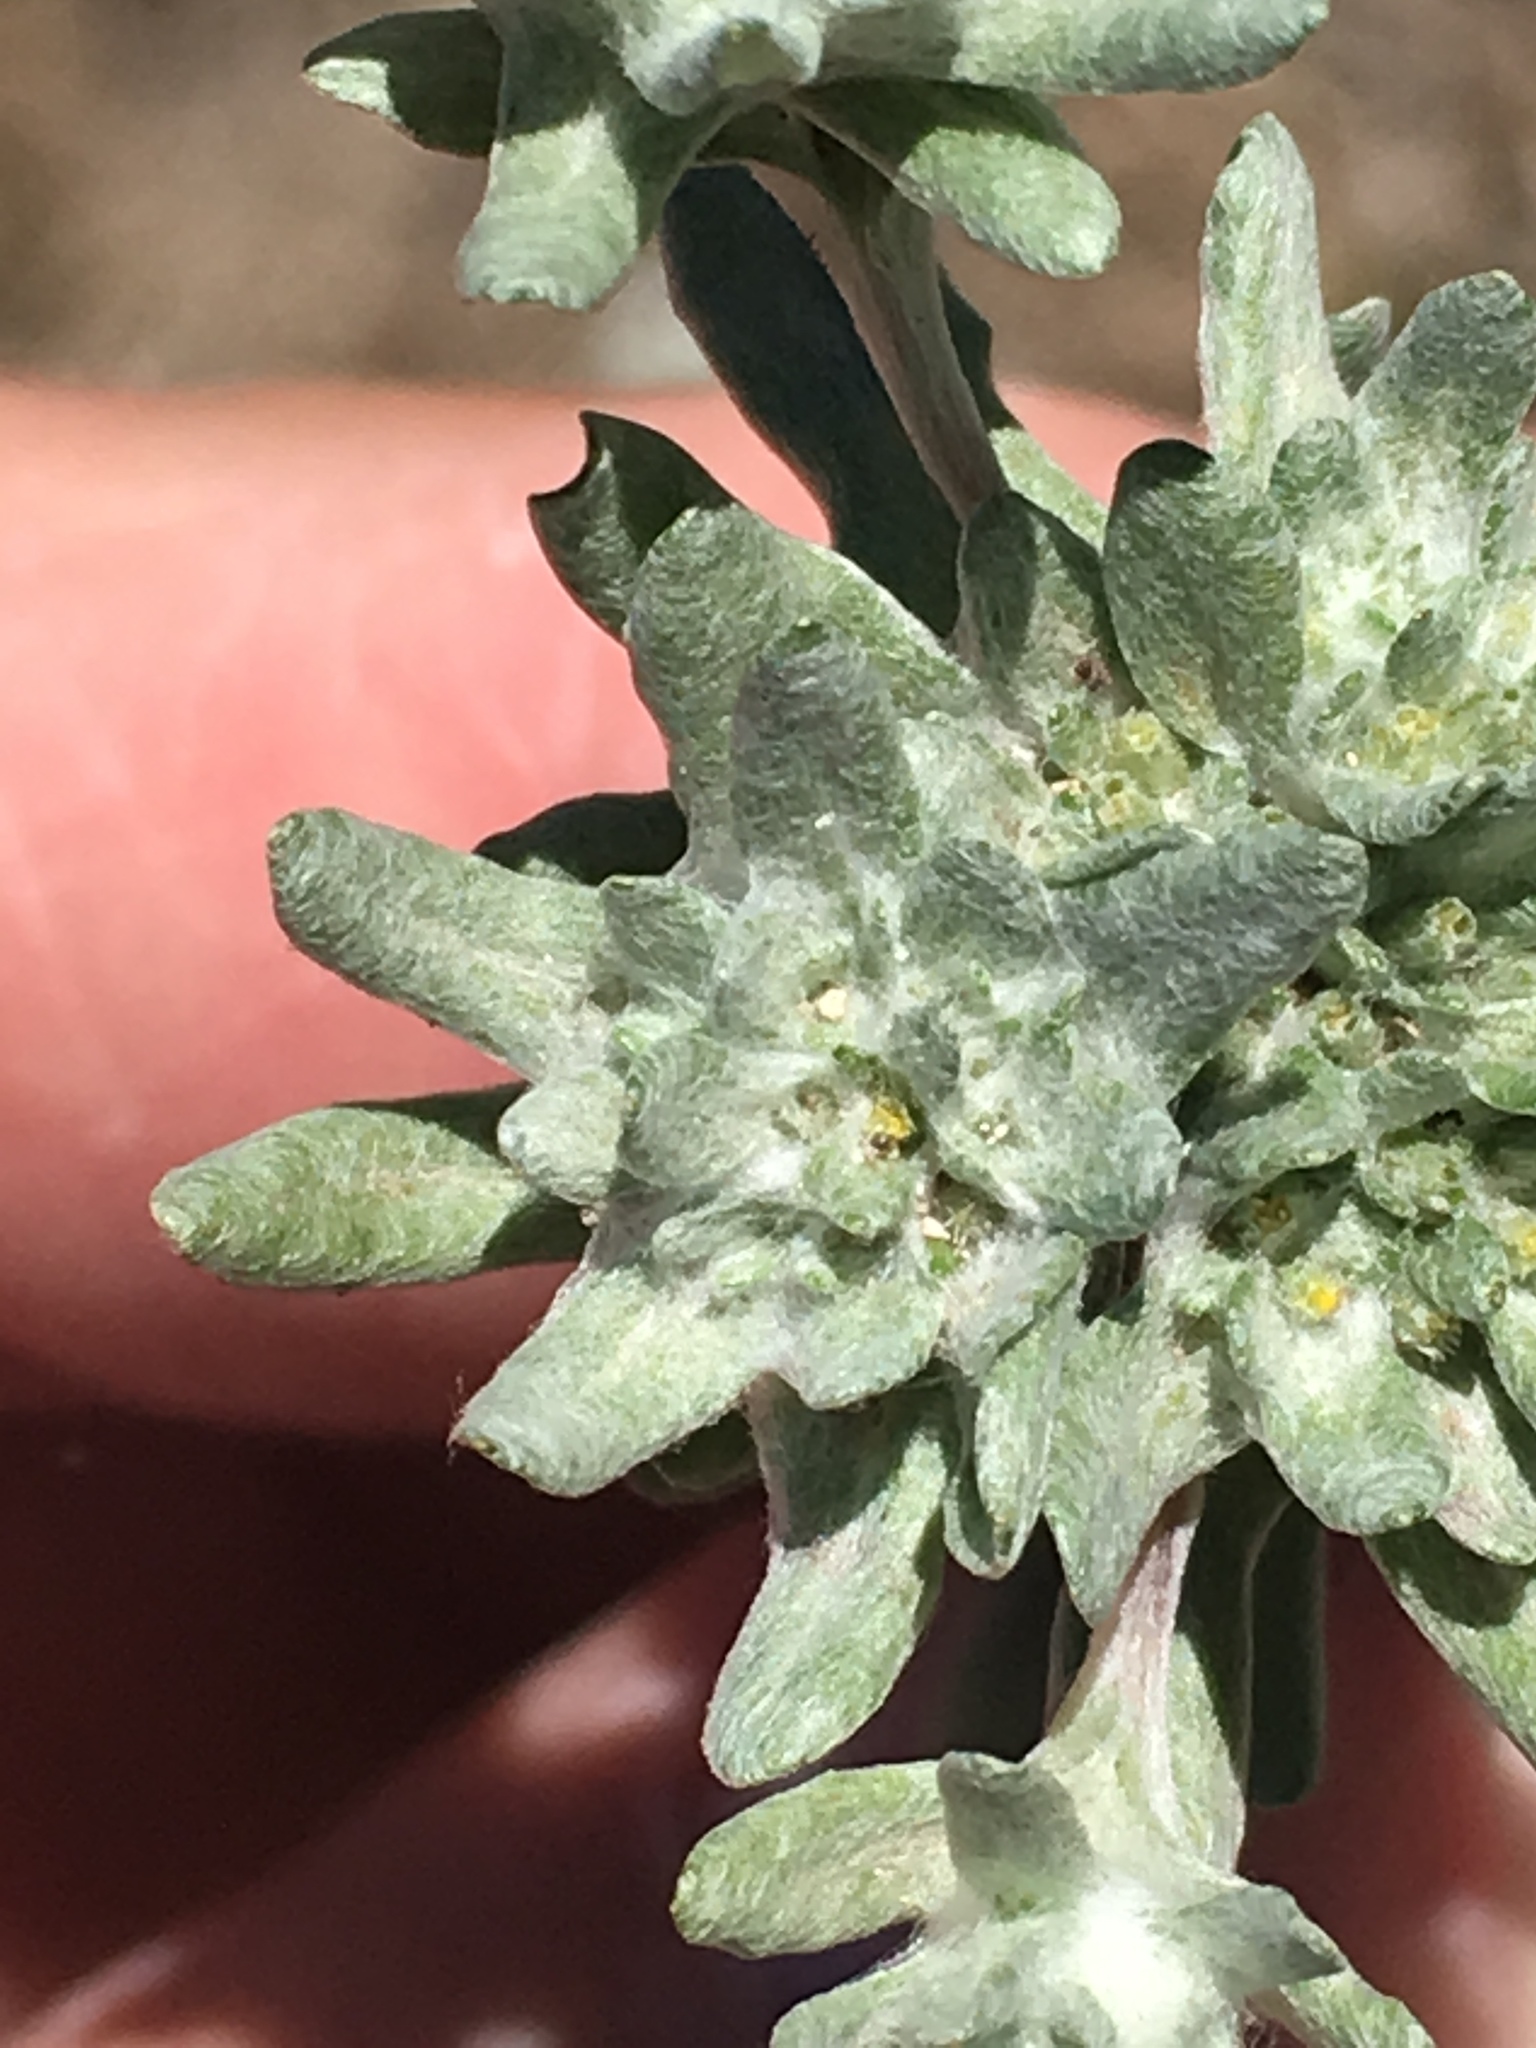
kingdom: Plantae
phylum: Tracheophyta
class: Magnoliopsida
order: Asterales
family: Asteraceae
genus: Diaperia
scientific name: Diaperia prolifera
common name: Big-head rabbit-tobacco
